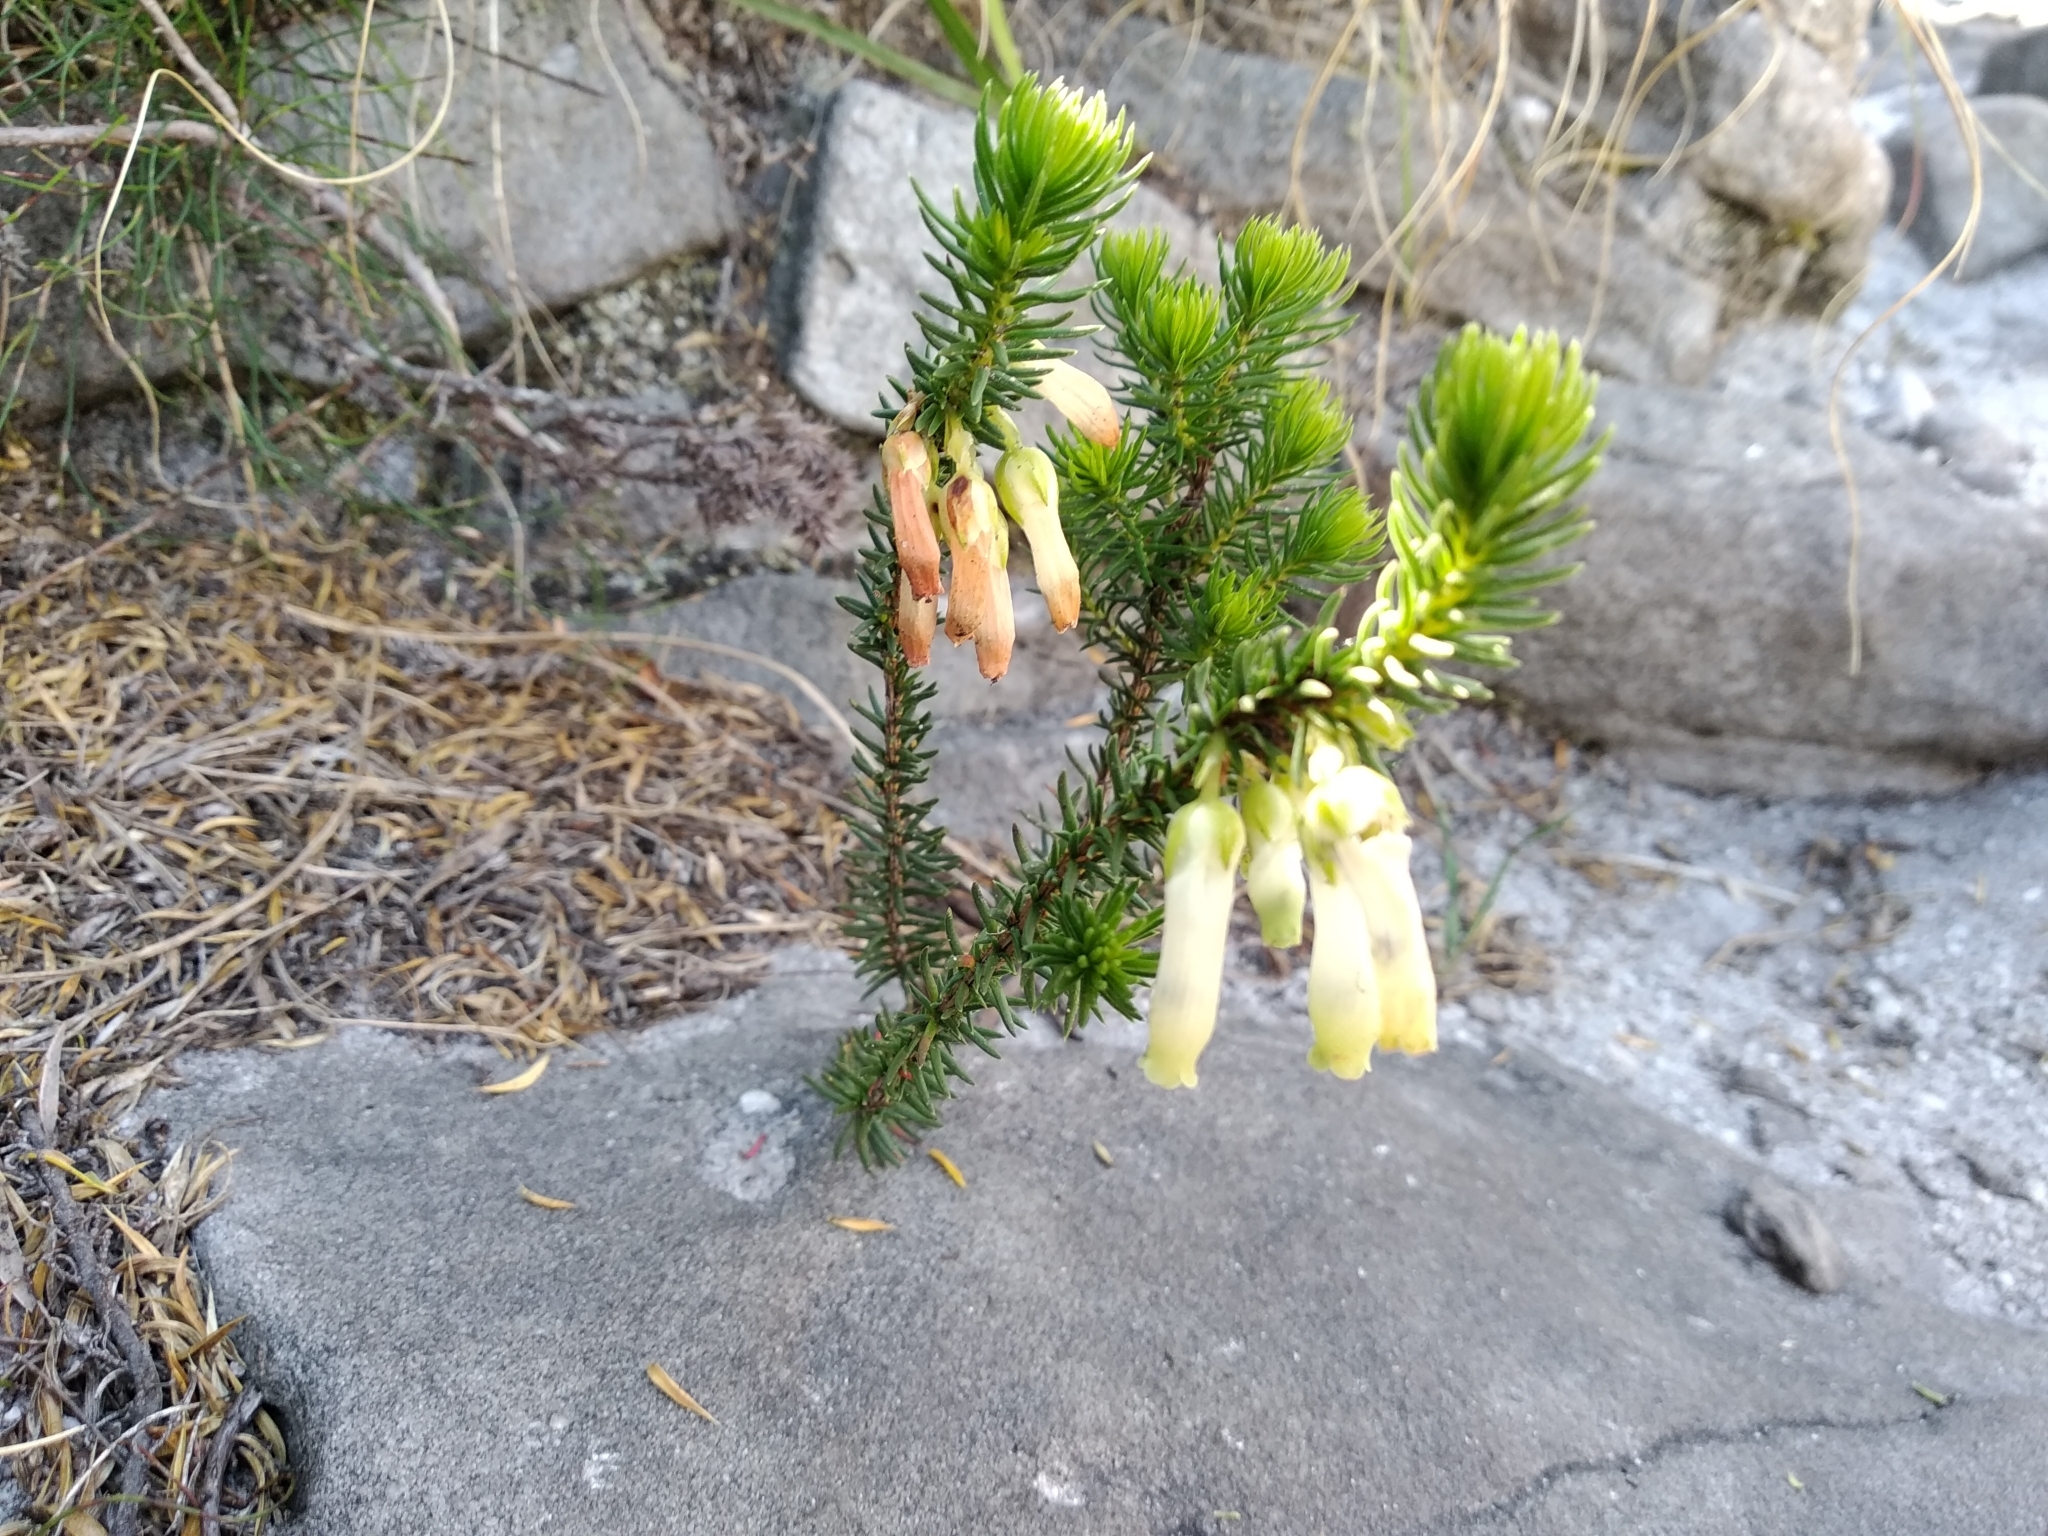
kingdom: Plantae
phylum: Tracheophyta
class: Magnoliopsida
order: Ericales
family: Ericaceae
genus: Erica
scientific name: Erica mammosa
